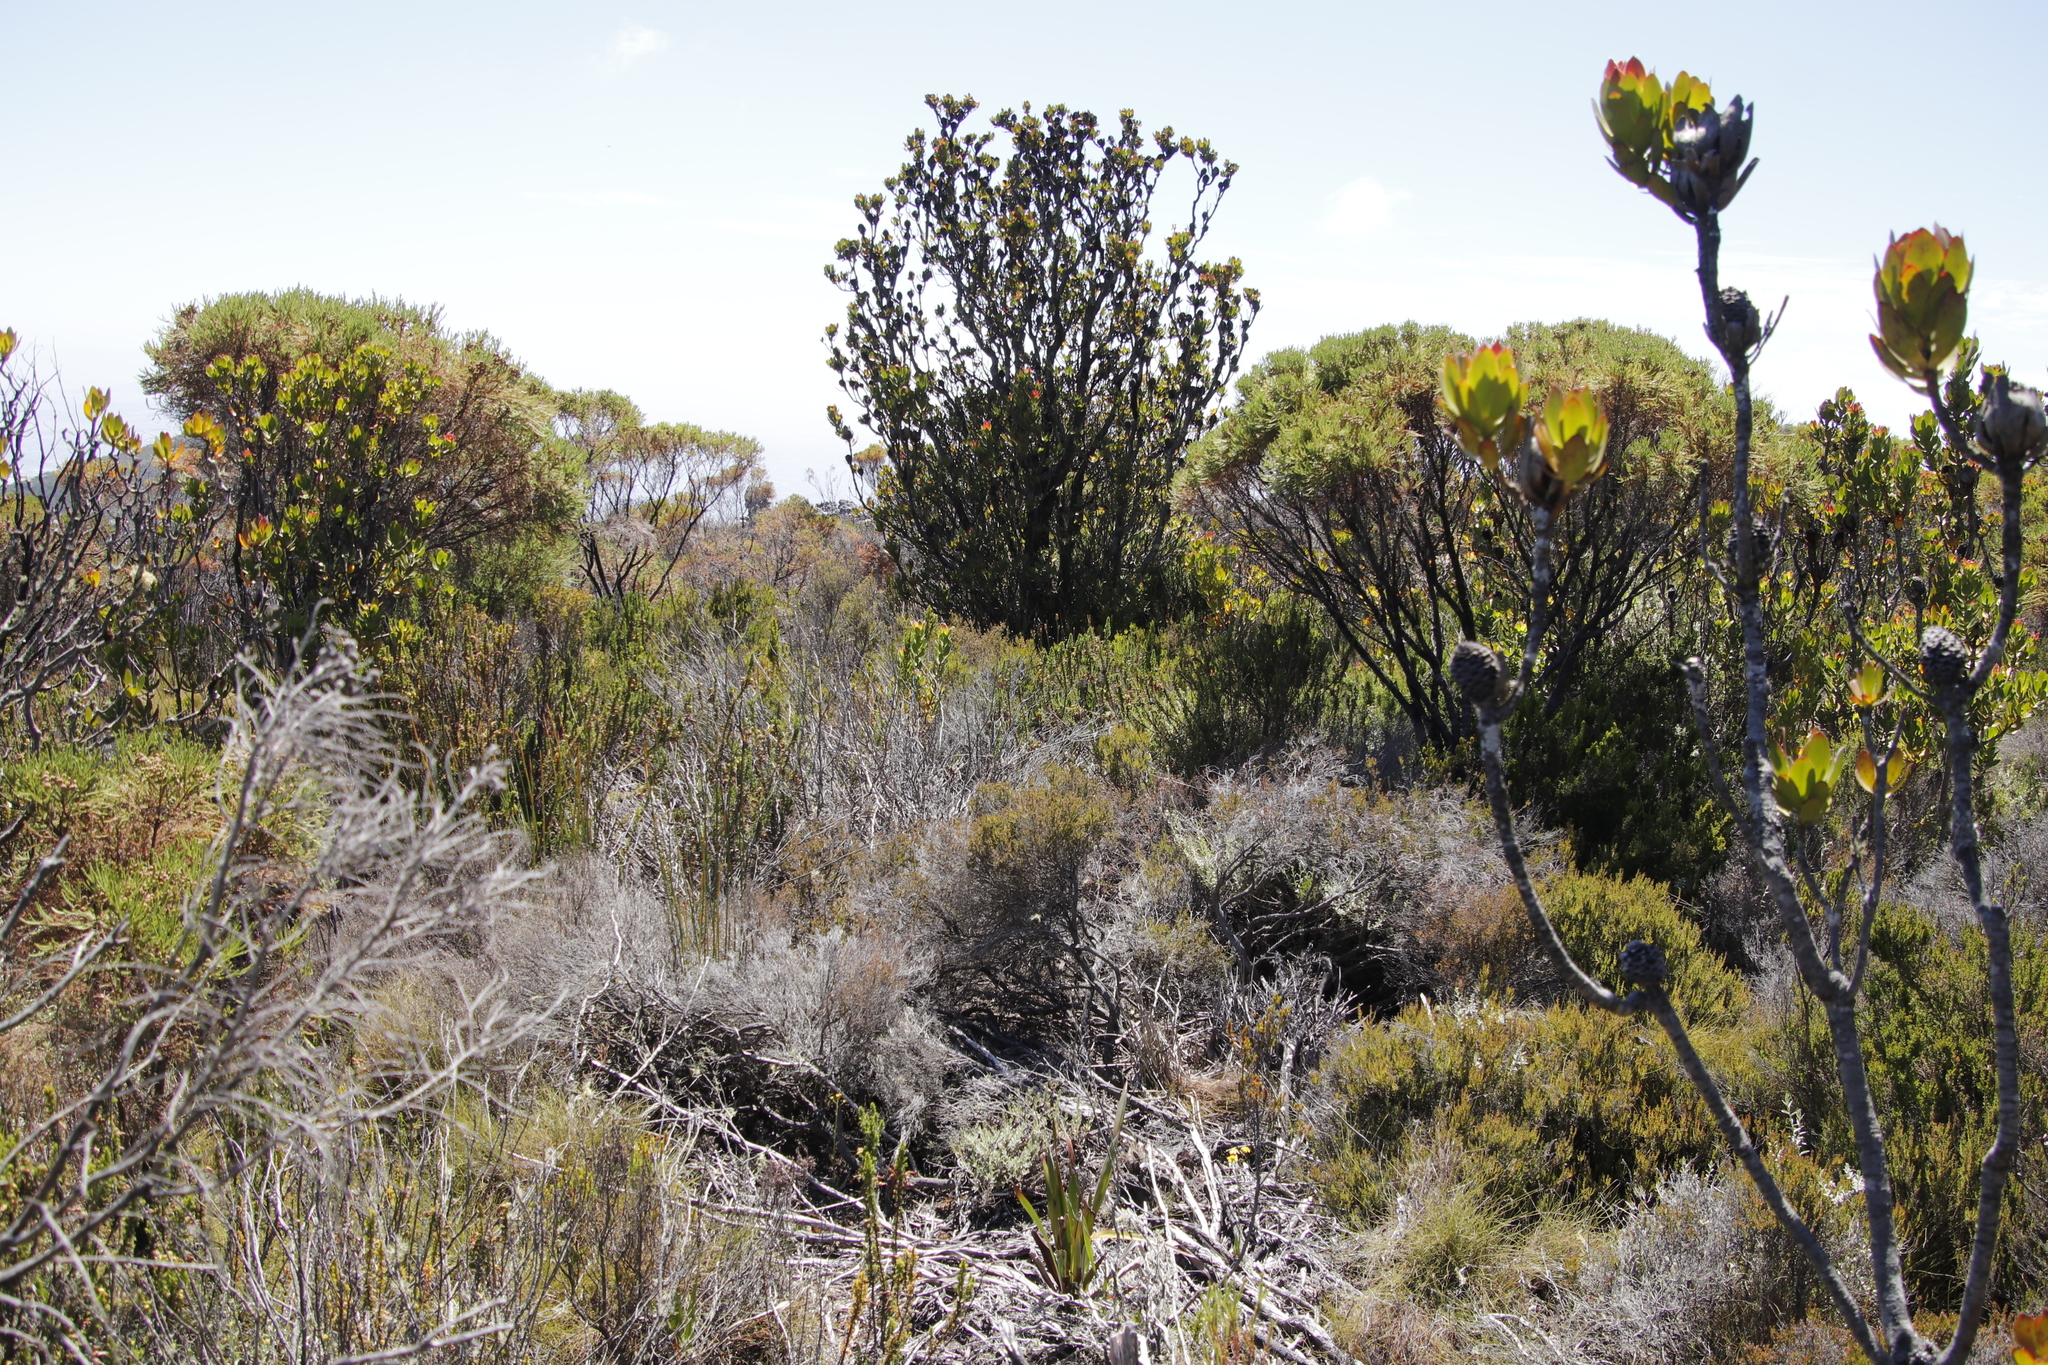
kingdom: Plantae
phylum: Tracheophyta
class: Magnoliopsida
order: Proteales
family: Proteaceae
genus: Leucadendron
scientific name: Leucadendron strobilinum
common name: Mountain rose
